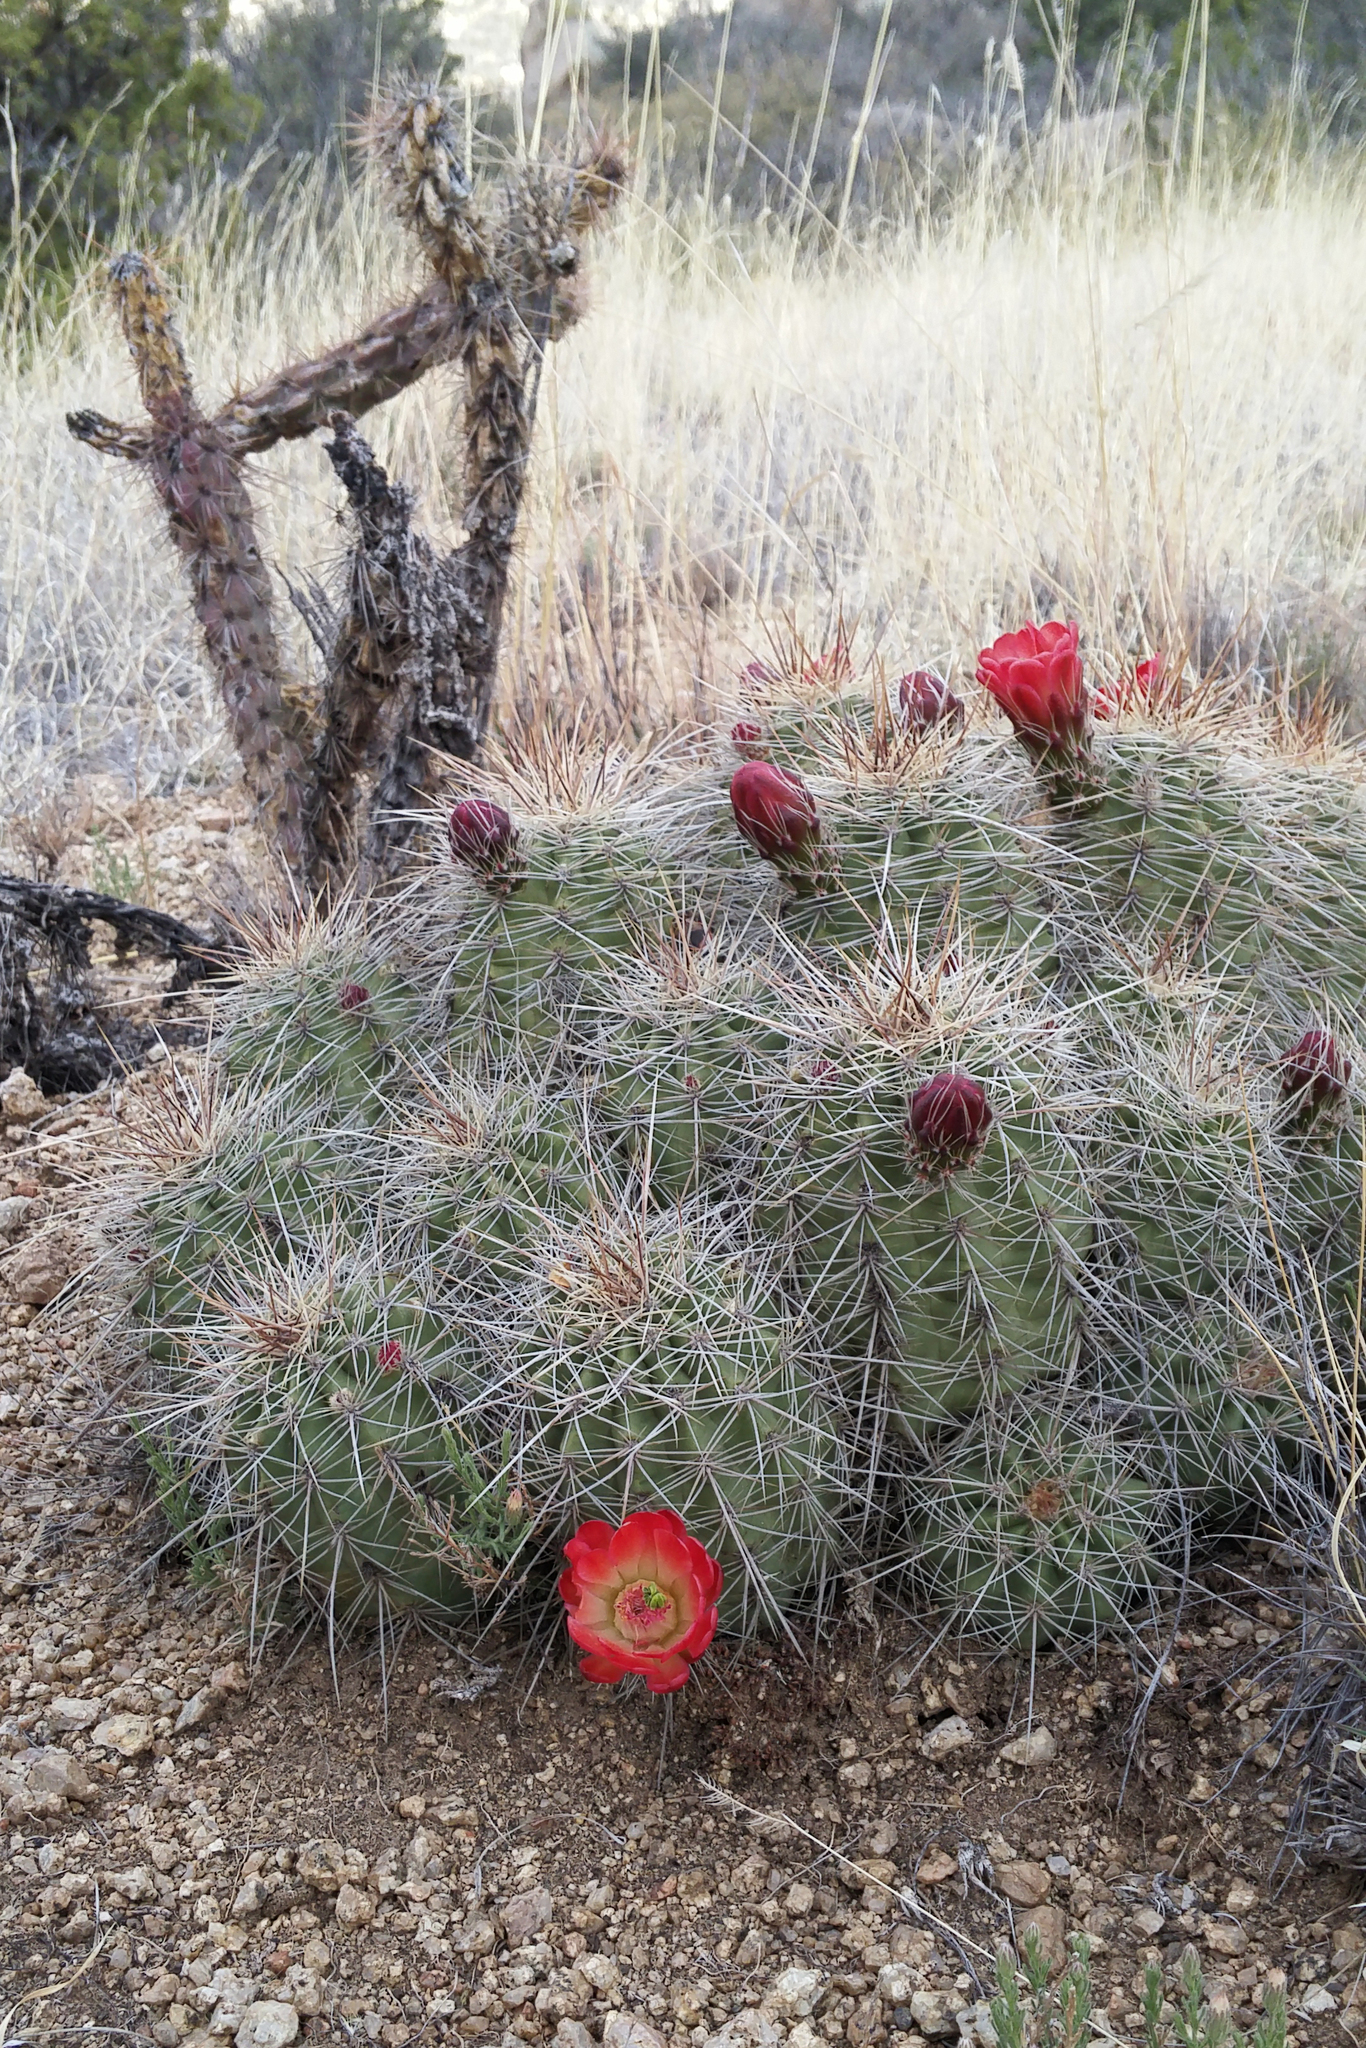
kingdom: Plantae
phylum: Tracheophyta
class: Magnoliopsida
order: Caryophyllales
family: Cactaceae
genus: Echinocereus
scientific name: Echinocereus coccineus
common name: Scarlet hedgehog cactus
